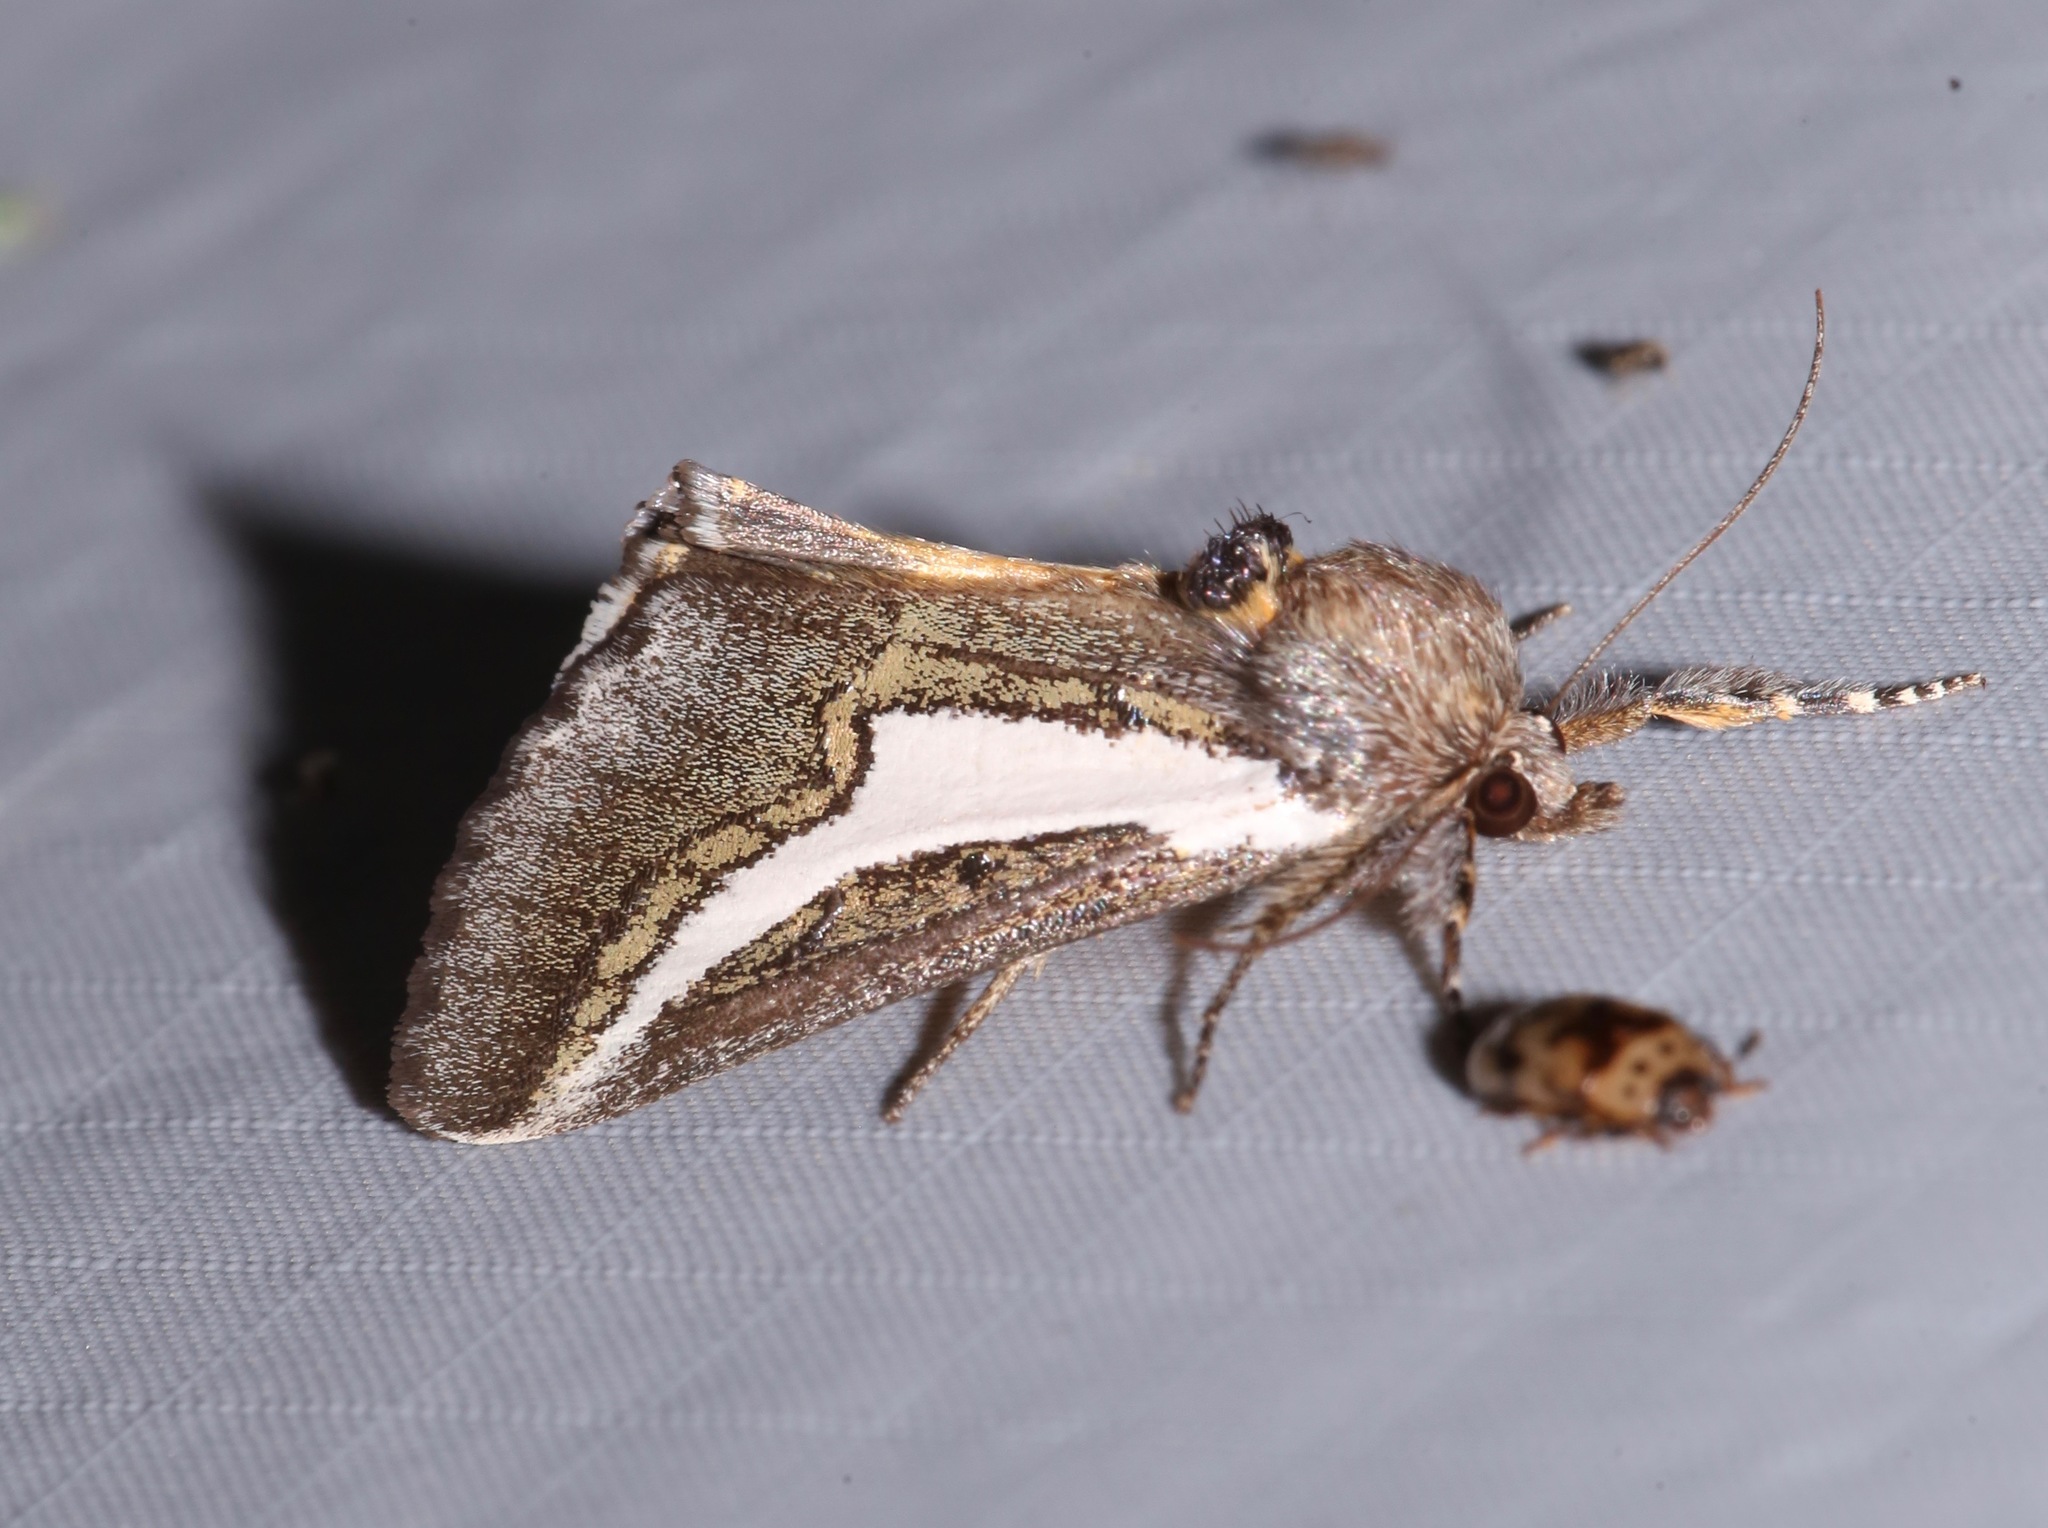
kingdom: Animalia
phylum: Arthropoda
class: Insecta
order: Lepidoptera
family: Noctuidae
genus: Euscirrhopterus
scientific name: Euscirrhopterus cosyra
